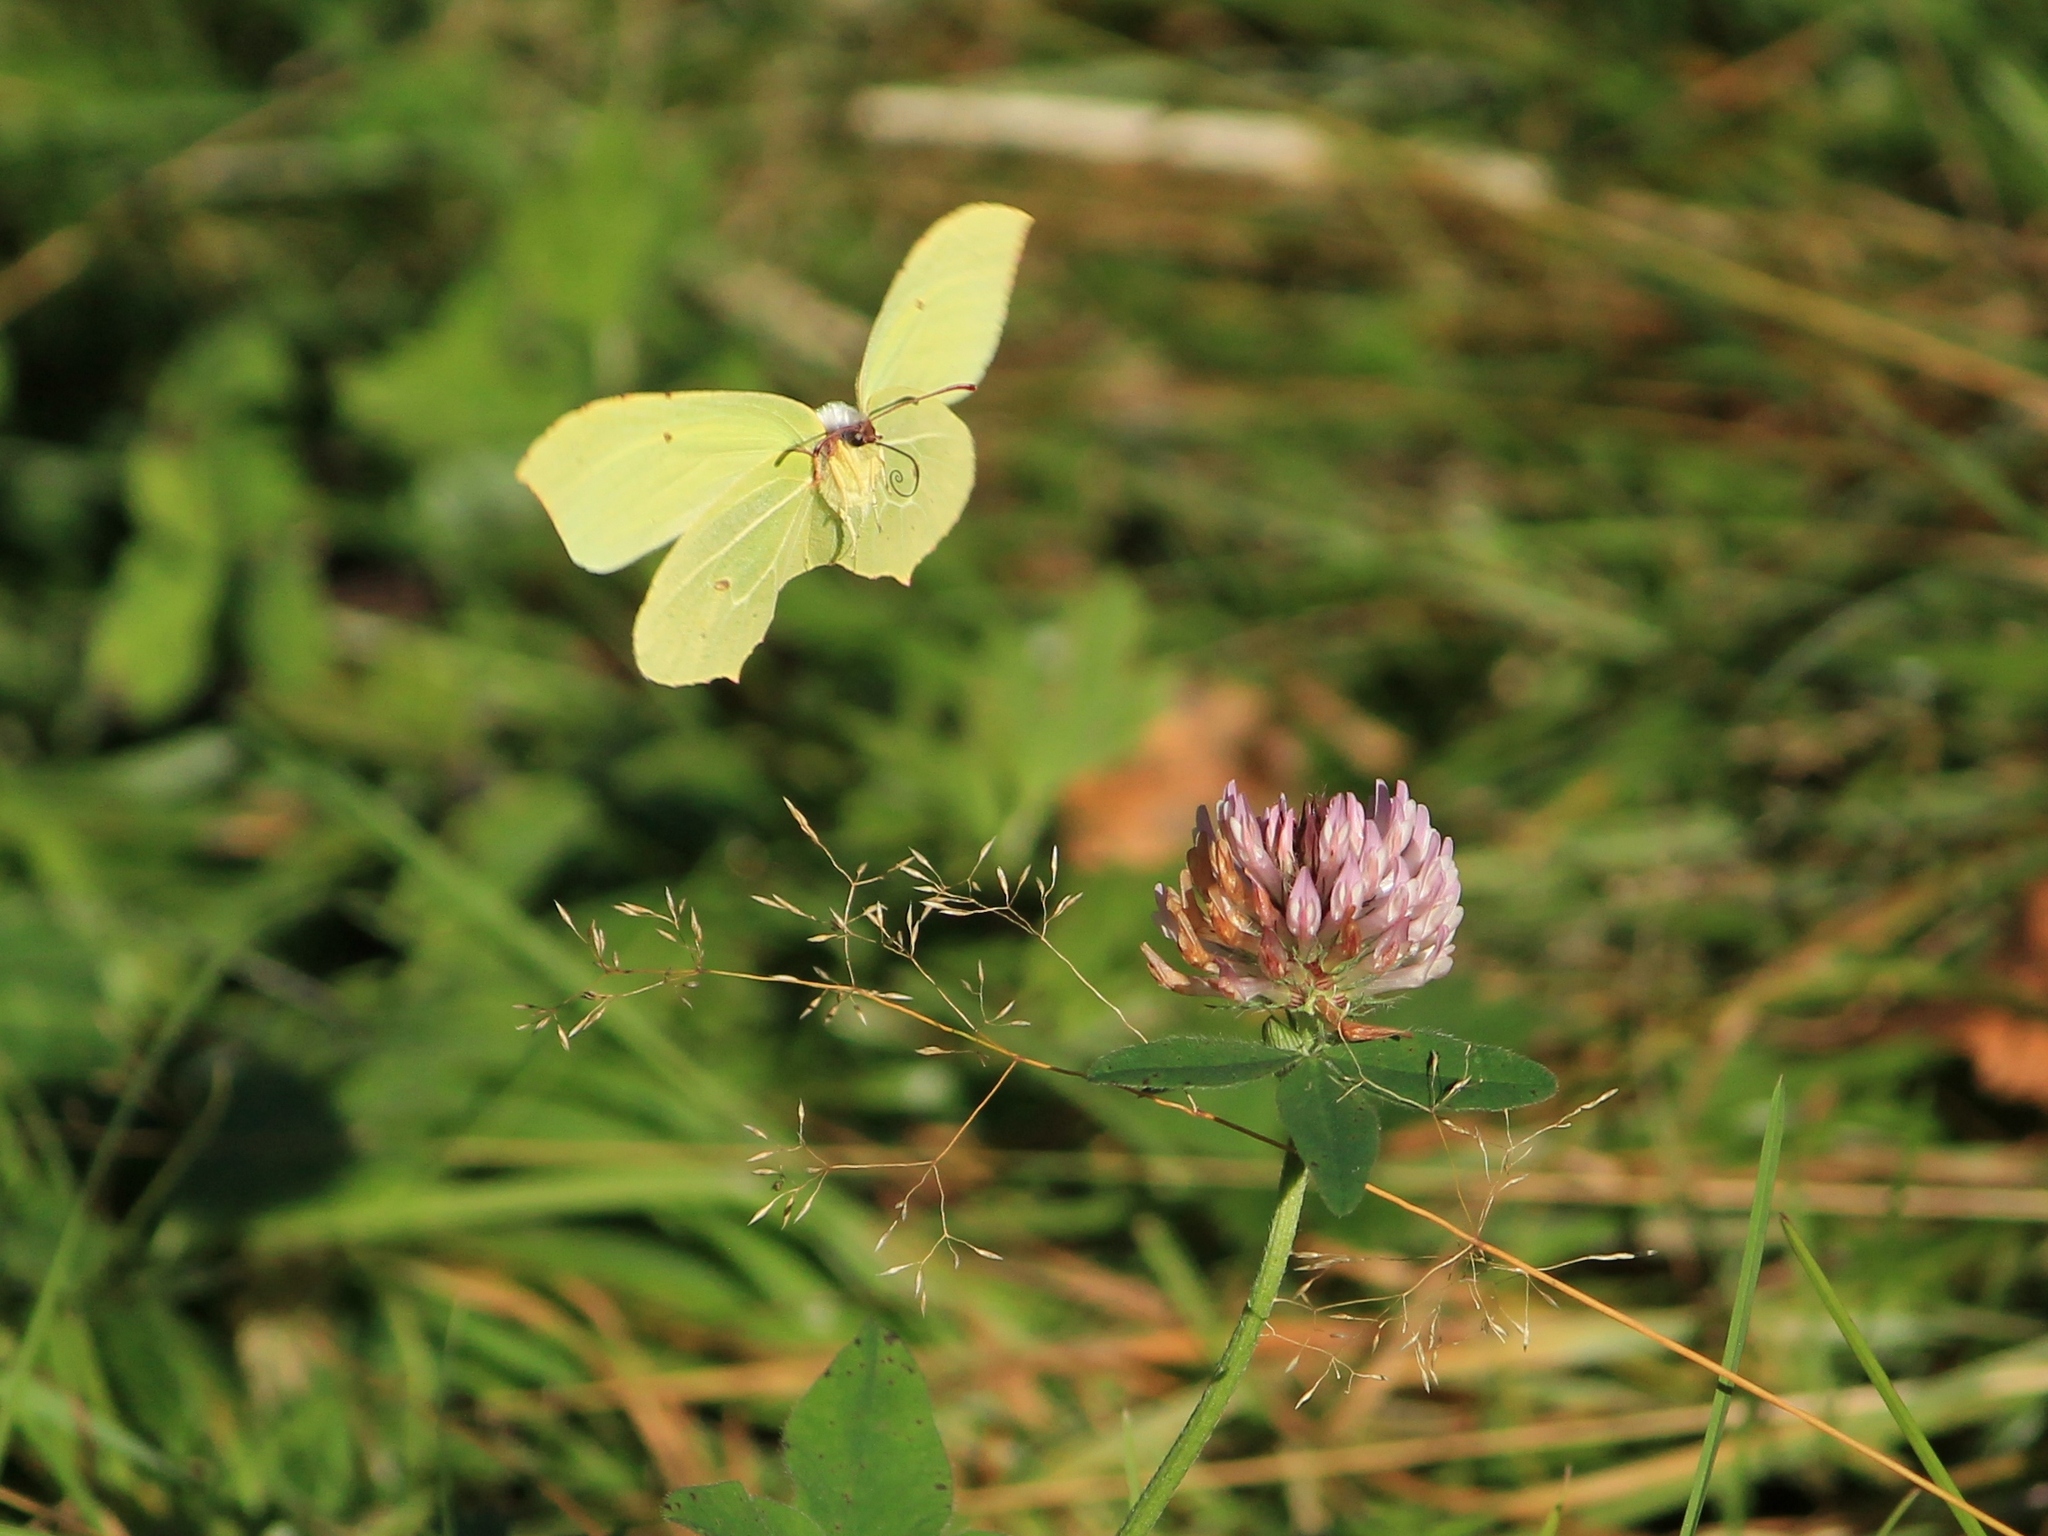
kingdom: Animalia
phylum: Arthropoda
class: Insecta
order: Lepidoptera
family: Pieridae
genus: Gonepteryx
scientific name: Gonepteryx rhamni
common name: Brimstone
